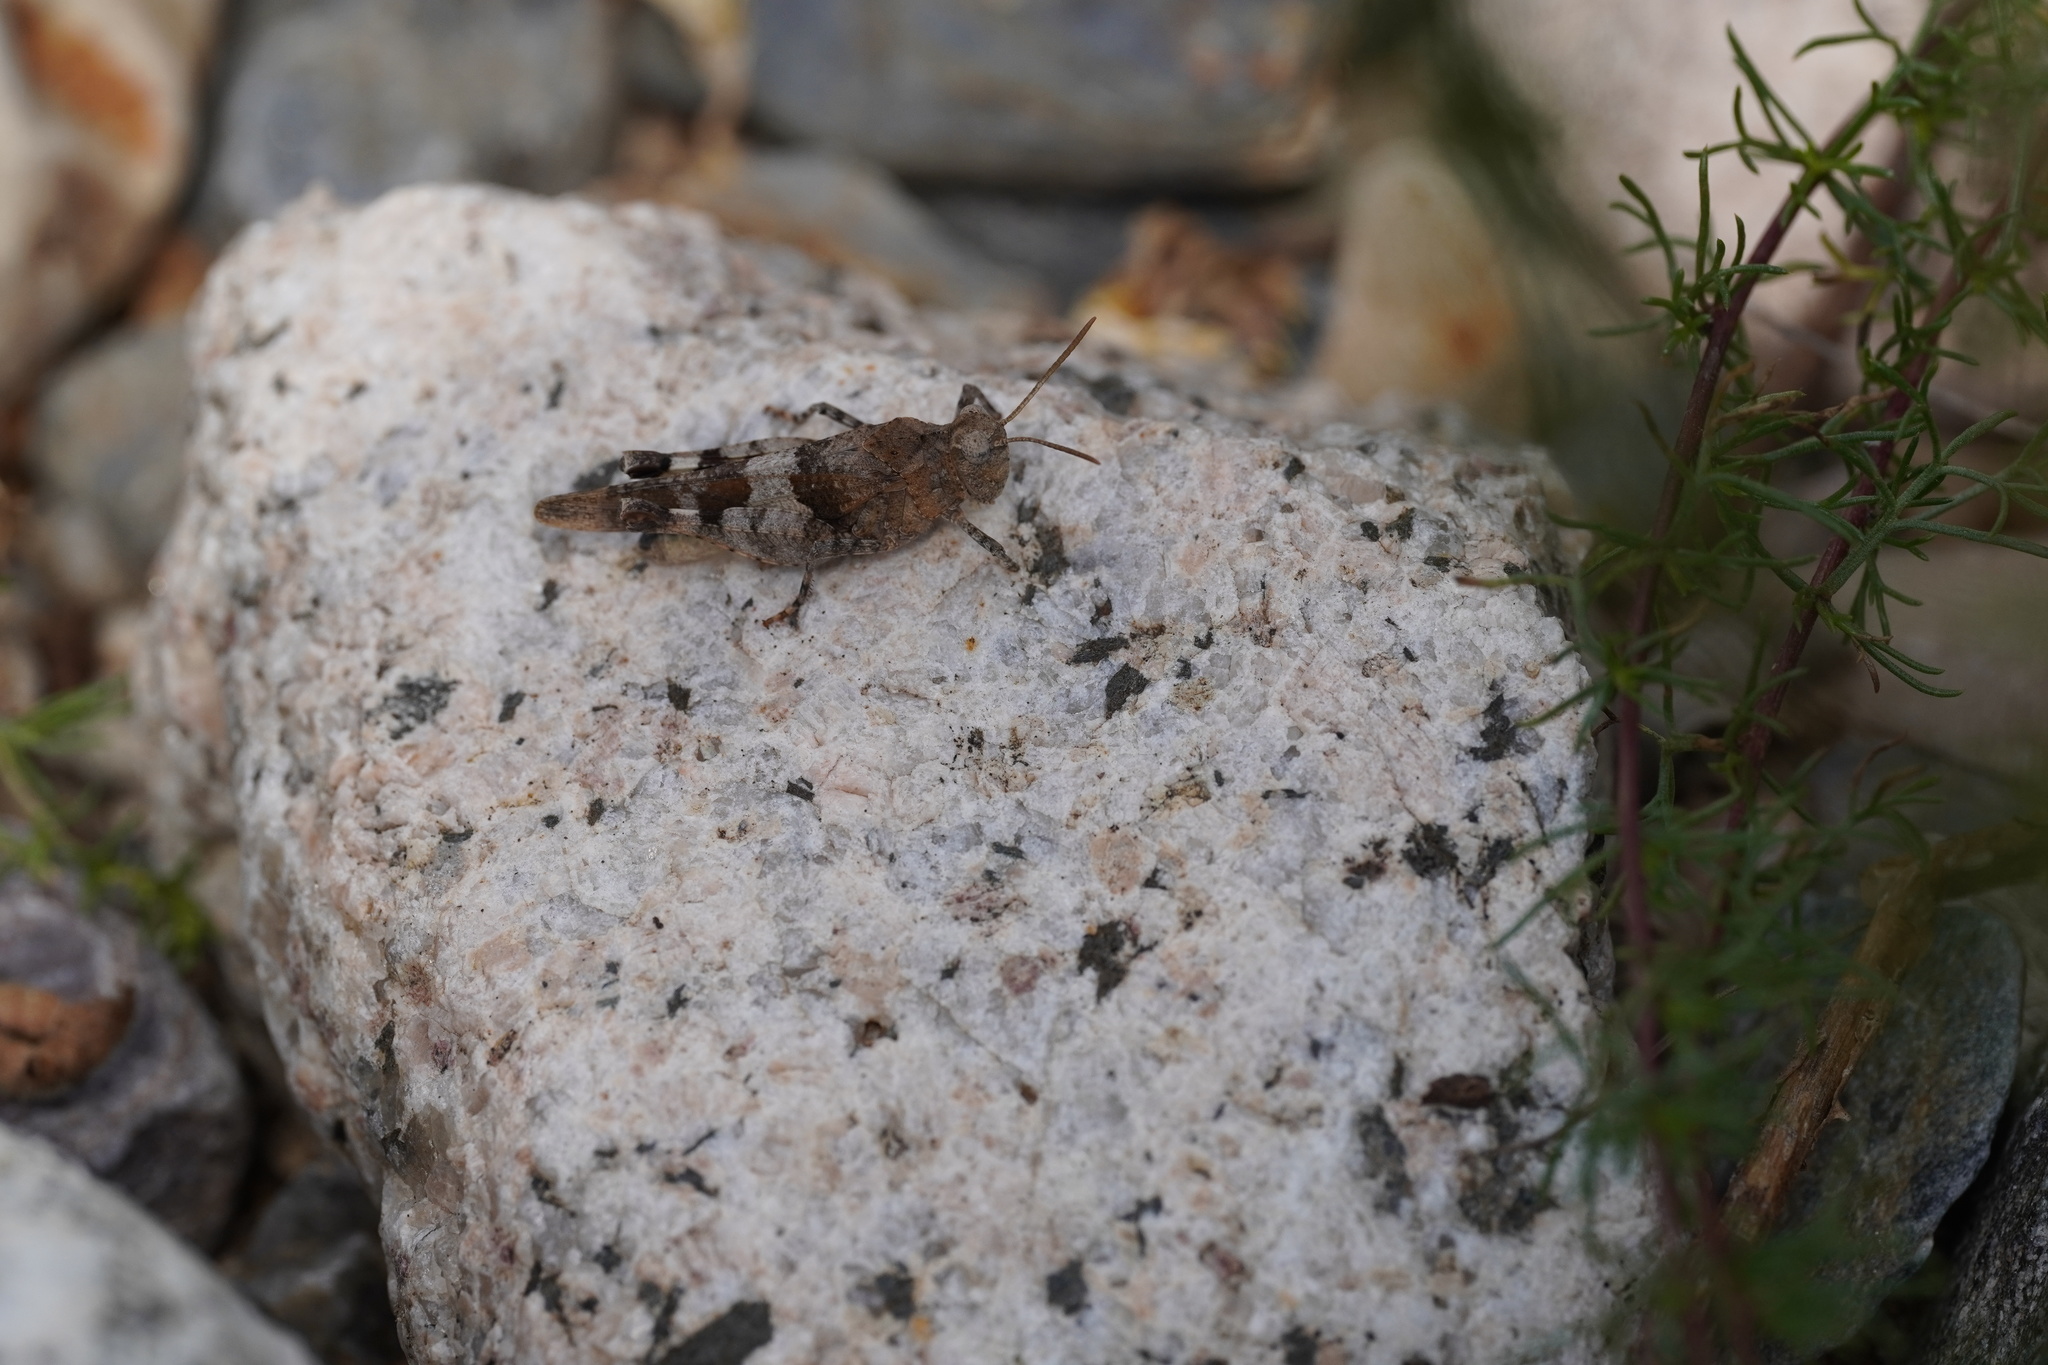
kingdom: Animalia
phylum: Arthropoda
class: Insecta
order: Orthoptera
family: Acrididae
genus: Oedipoda
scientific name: Oedipoda caerulescens
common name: Blue-winged grasshopper
